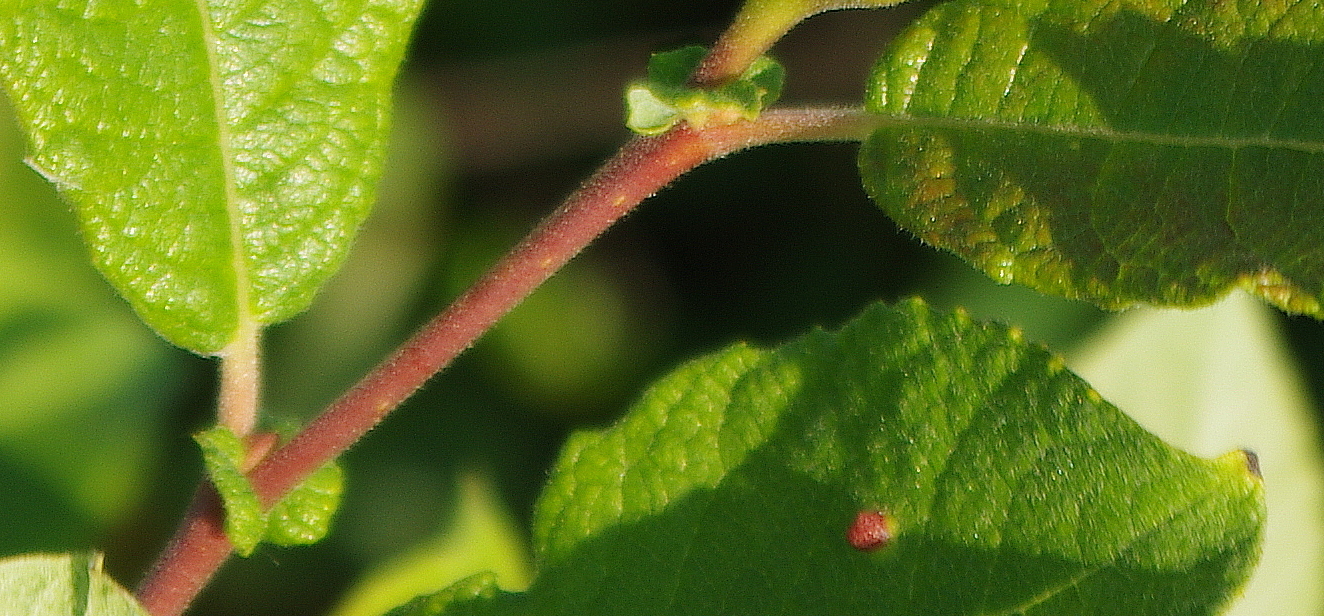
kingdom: Plantae
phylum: Tracheophyta
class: Magnoliopsida
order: Malpighiales
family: Salicaceae
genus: Salix
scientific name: Salix aurita
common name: Eared willow
